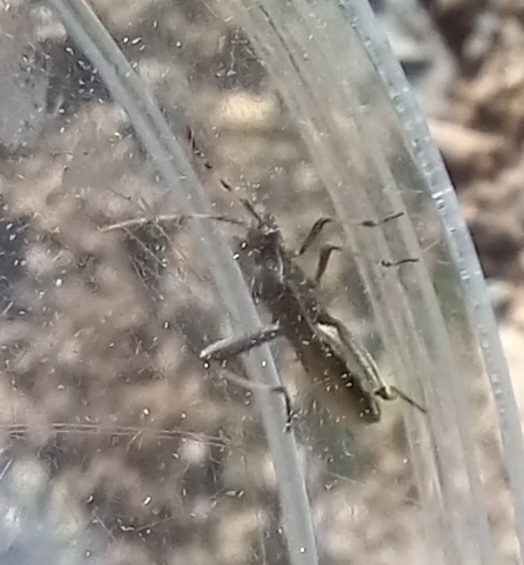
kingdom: Animalia
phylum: Arthropoda
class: Insecta
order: Hemiptera
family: Alydidae
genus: Camptopus
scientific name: Camptopus lateralis
